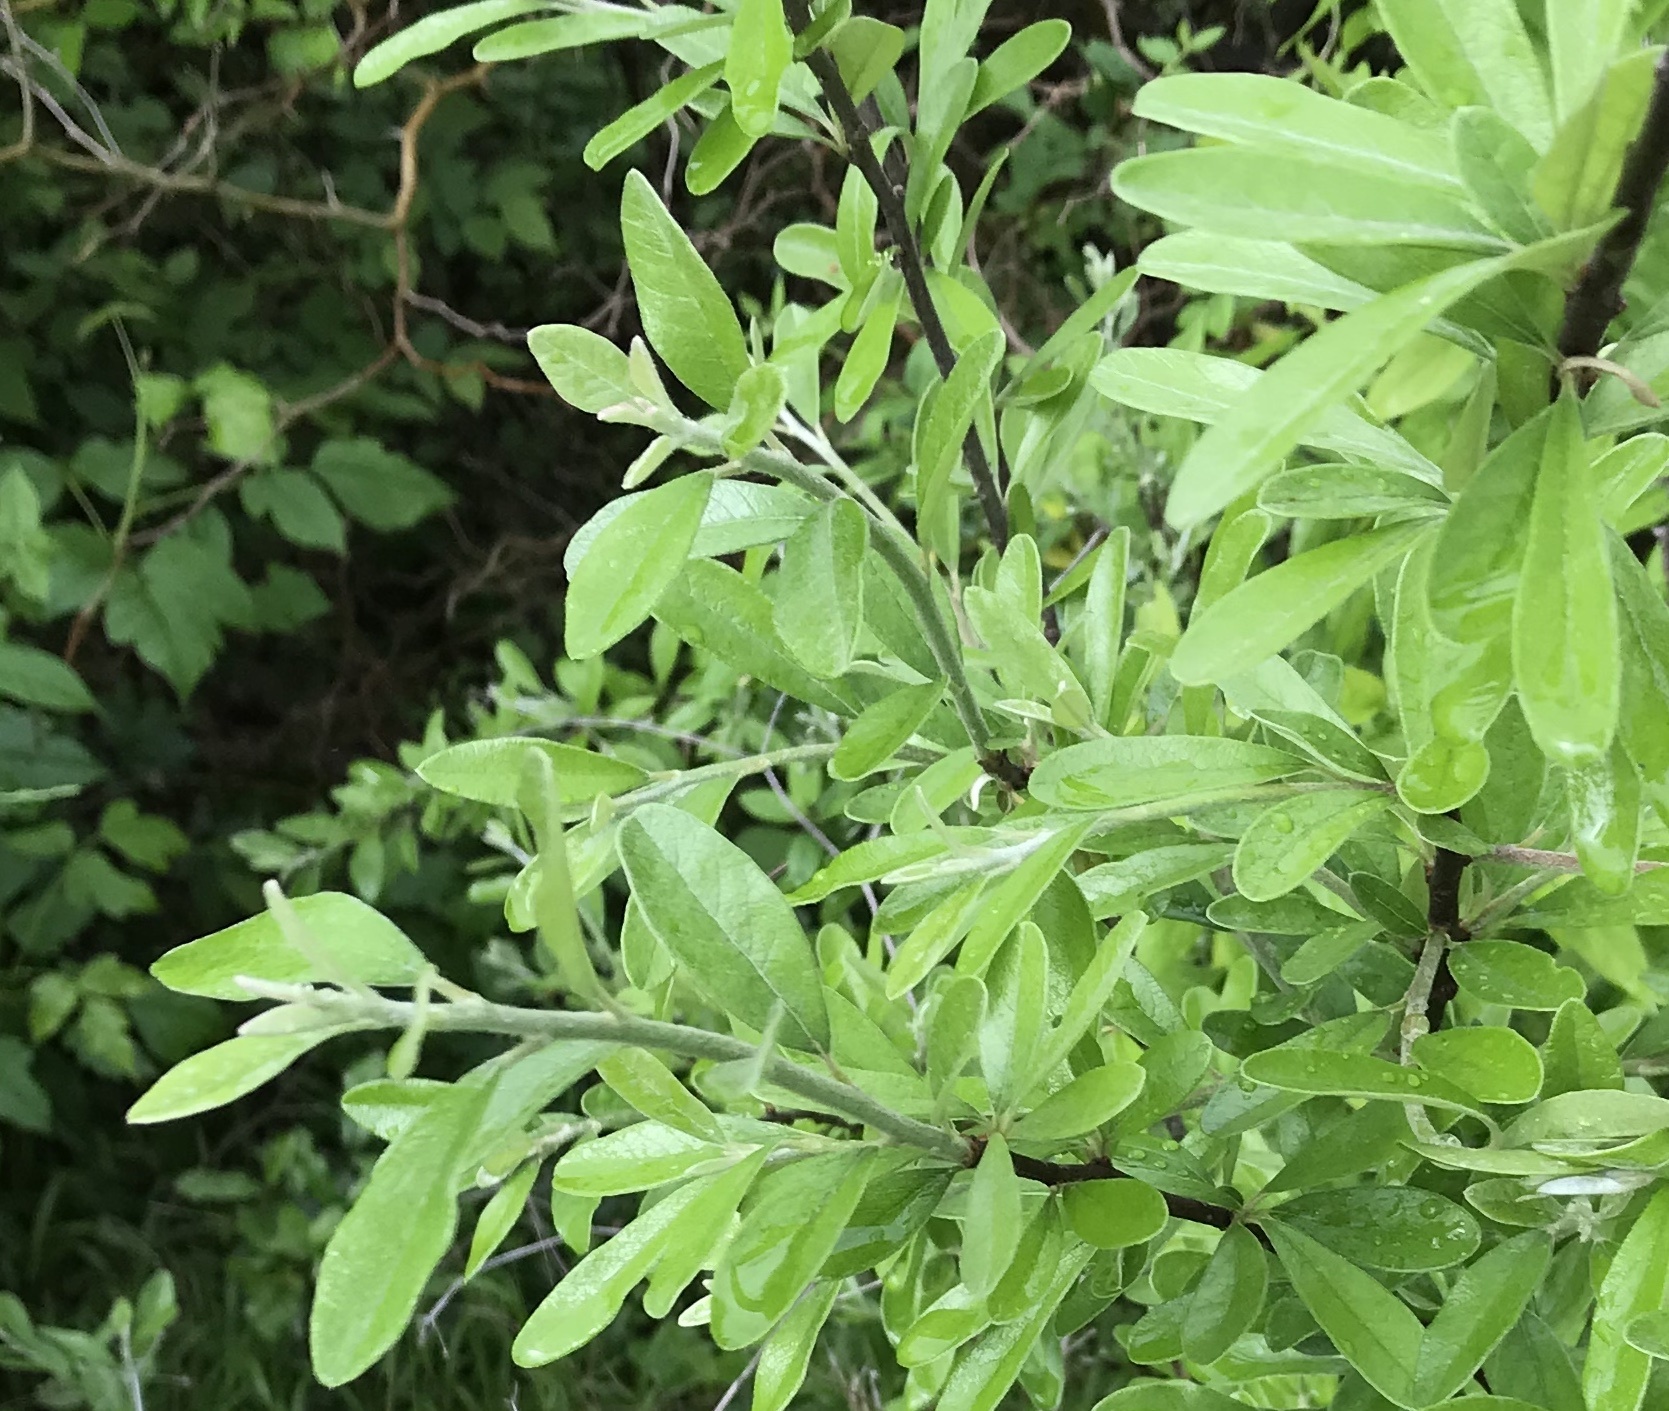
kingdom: Plantae
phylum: Tracheophyta
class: Magnoliopsida
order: Ericales
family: Sapotaceae
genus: Sideroxylon
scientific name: Sideroxylon lanuginosum
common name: Chittamwood
